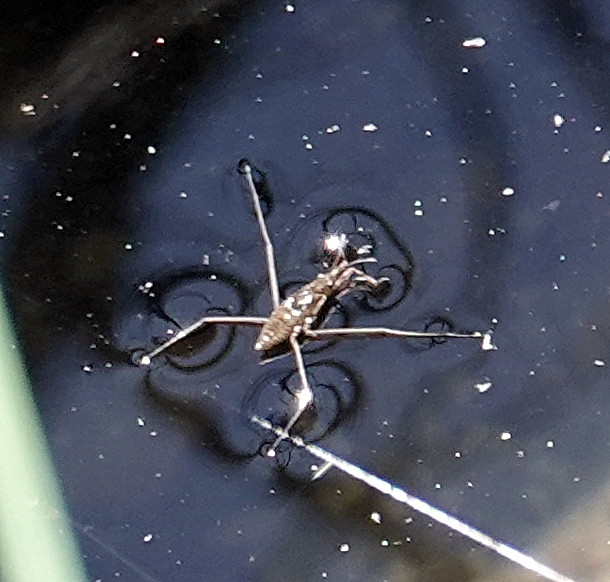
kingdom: Animalia
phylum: Arthropoda
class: Insecta
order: Hemiptera
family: Gerridae
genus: Aquarius
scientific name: Aquarius remigis
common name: Common water strider
